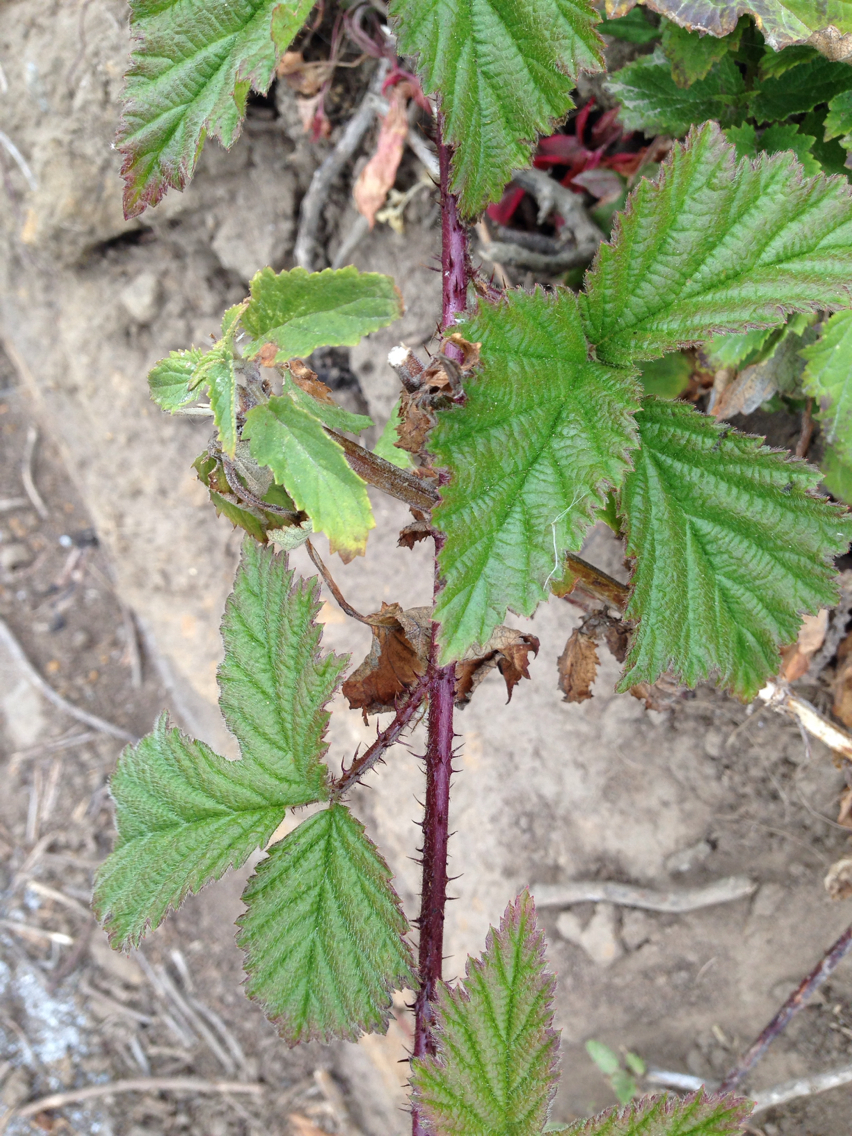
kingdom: Plantae
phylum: Tracheophyta
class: Magnoliopsida
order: Rosales
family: Rosaceae
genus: Rubus
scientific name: Rubus ursinus
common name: Pacific blackberry
